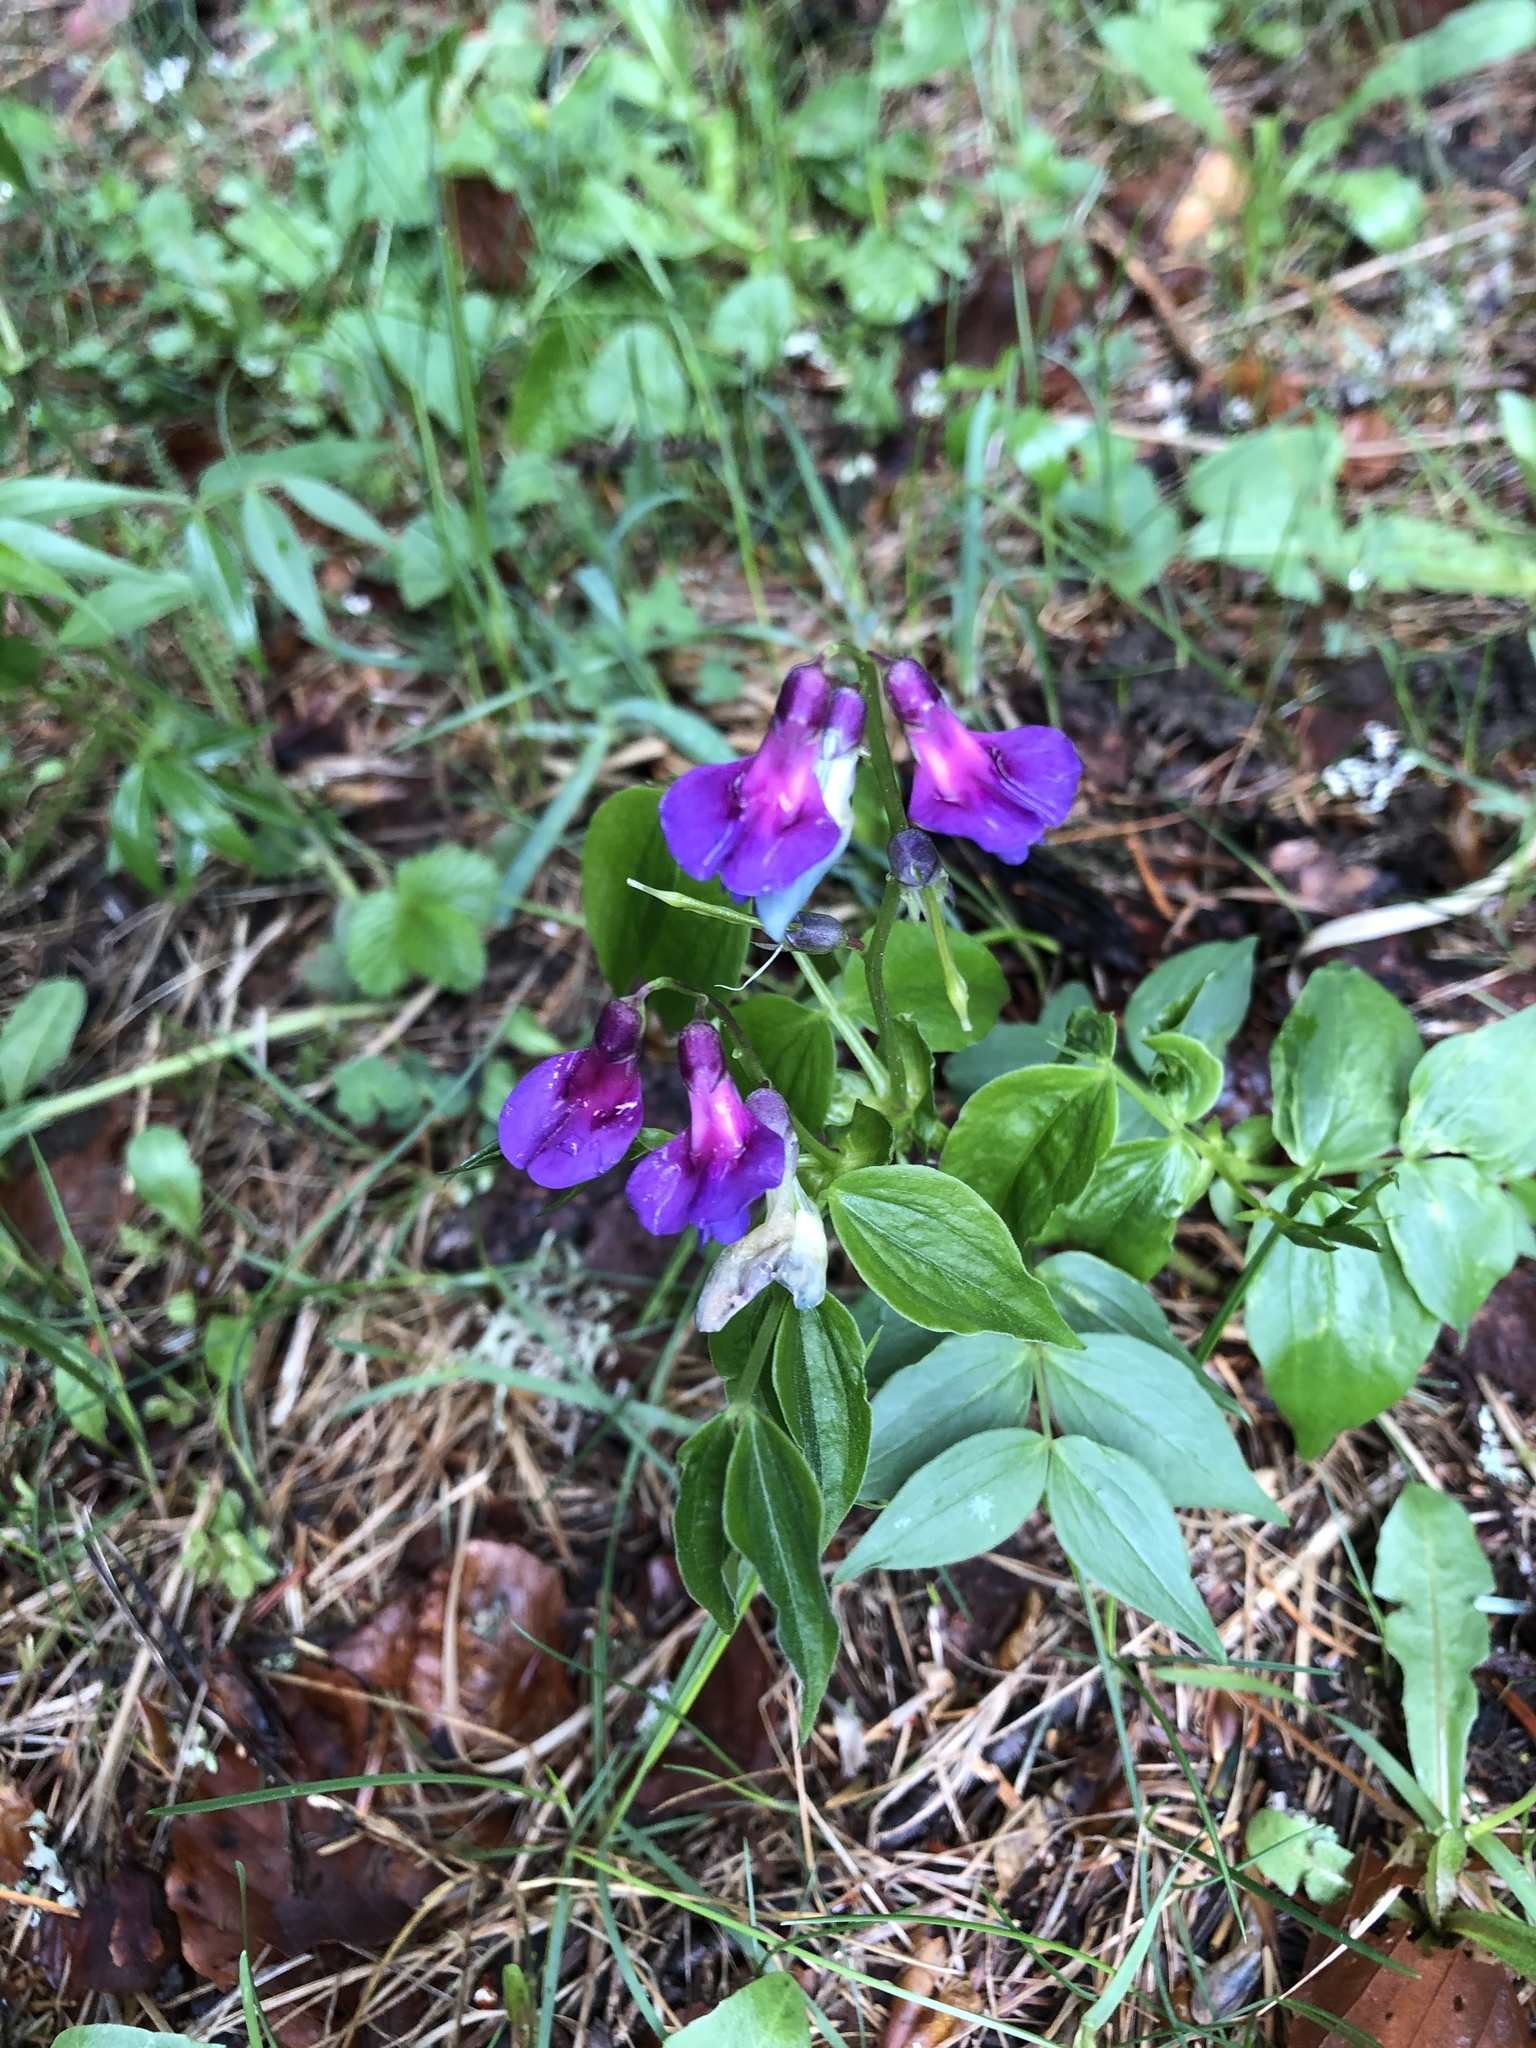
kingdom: Plantae
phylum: Tracheophyta
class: Magnoliopsida
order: Fabales
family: Fabaceae
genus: Lathyrus
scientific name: Lathyrus vernus
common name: Spring pea
